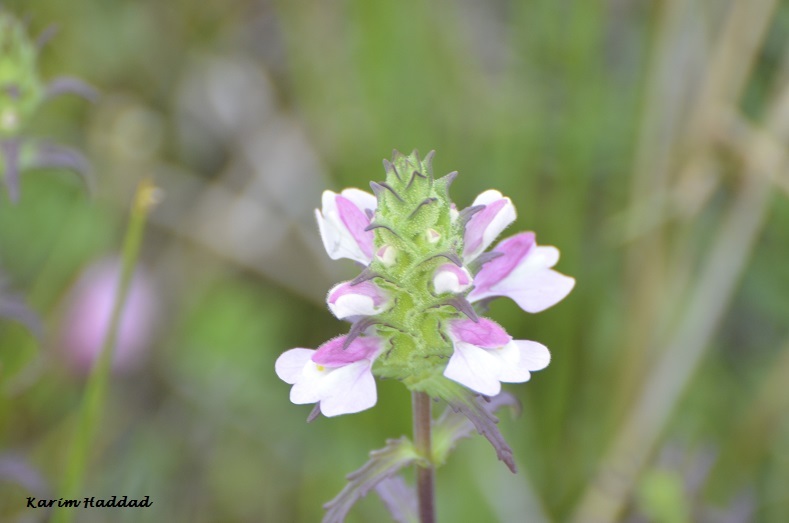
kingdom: Plantae
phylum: Tracheophyta
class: Magnoliopsida
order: Lamiales
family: Orobanchaceae
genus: Bellardia
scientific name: Bellardia trixago
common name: Mediterranean lineseed
